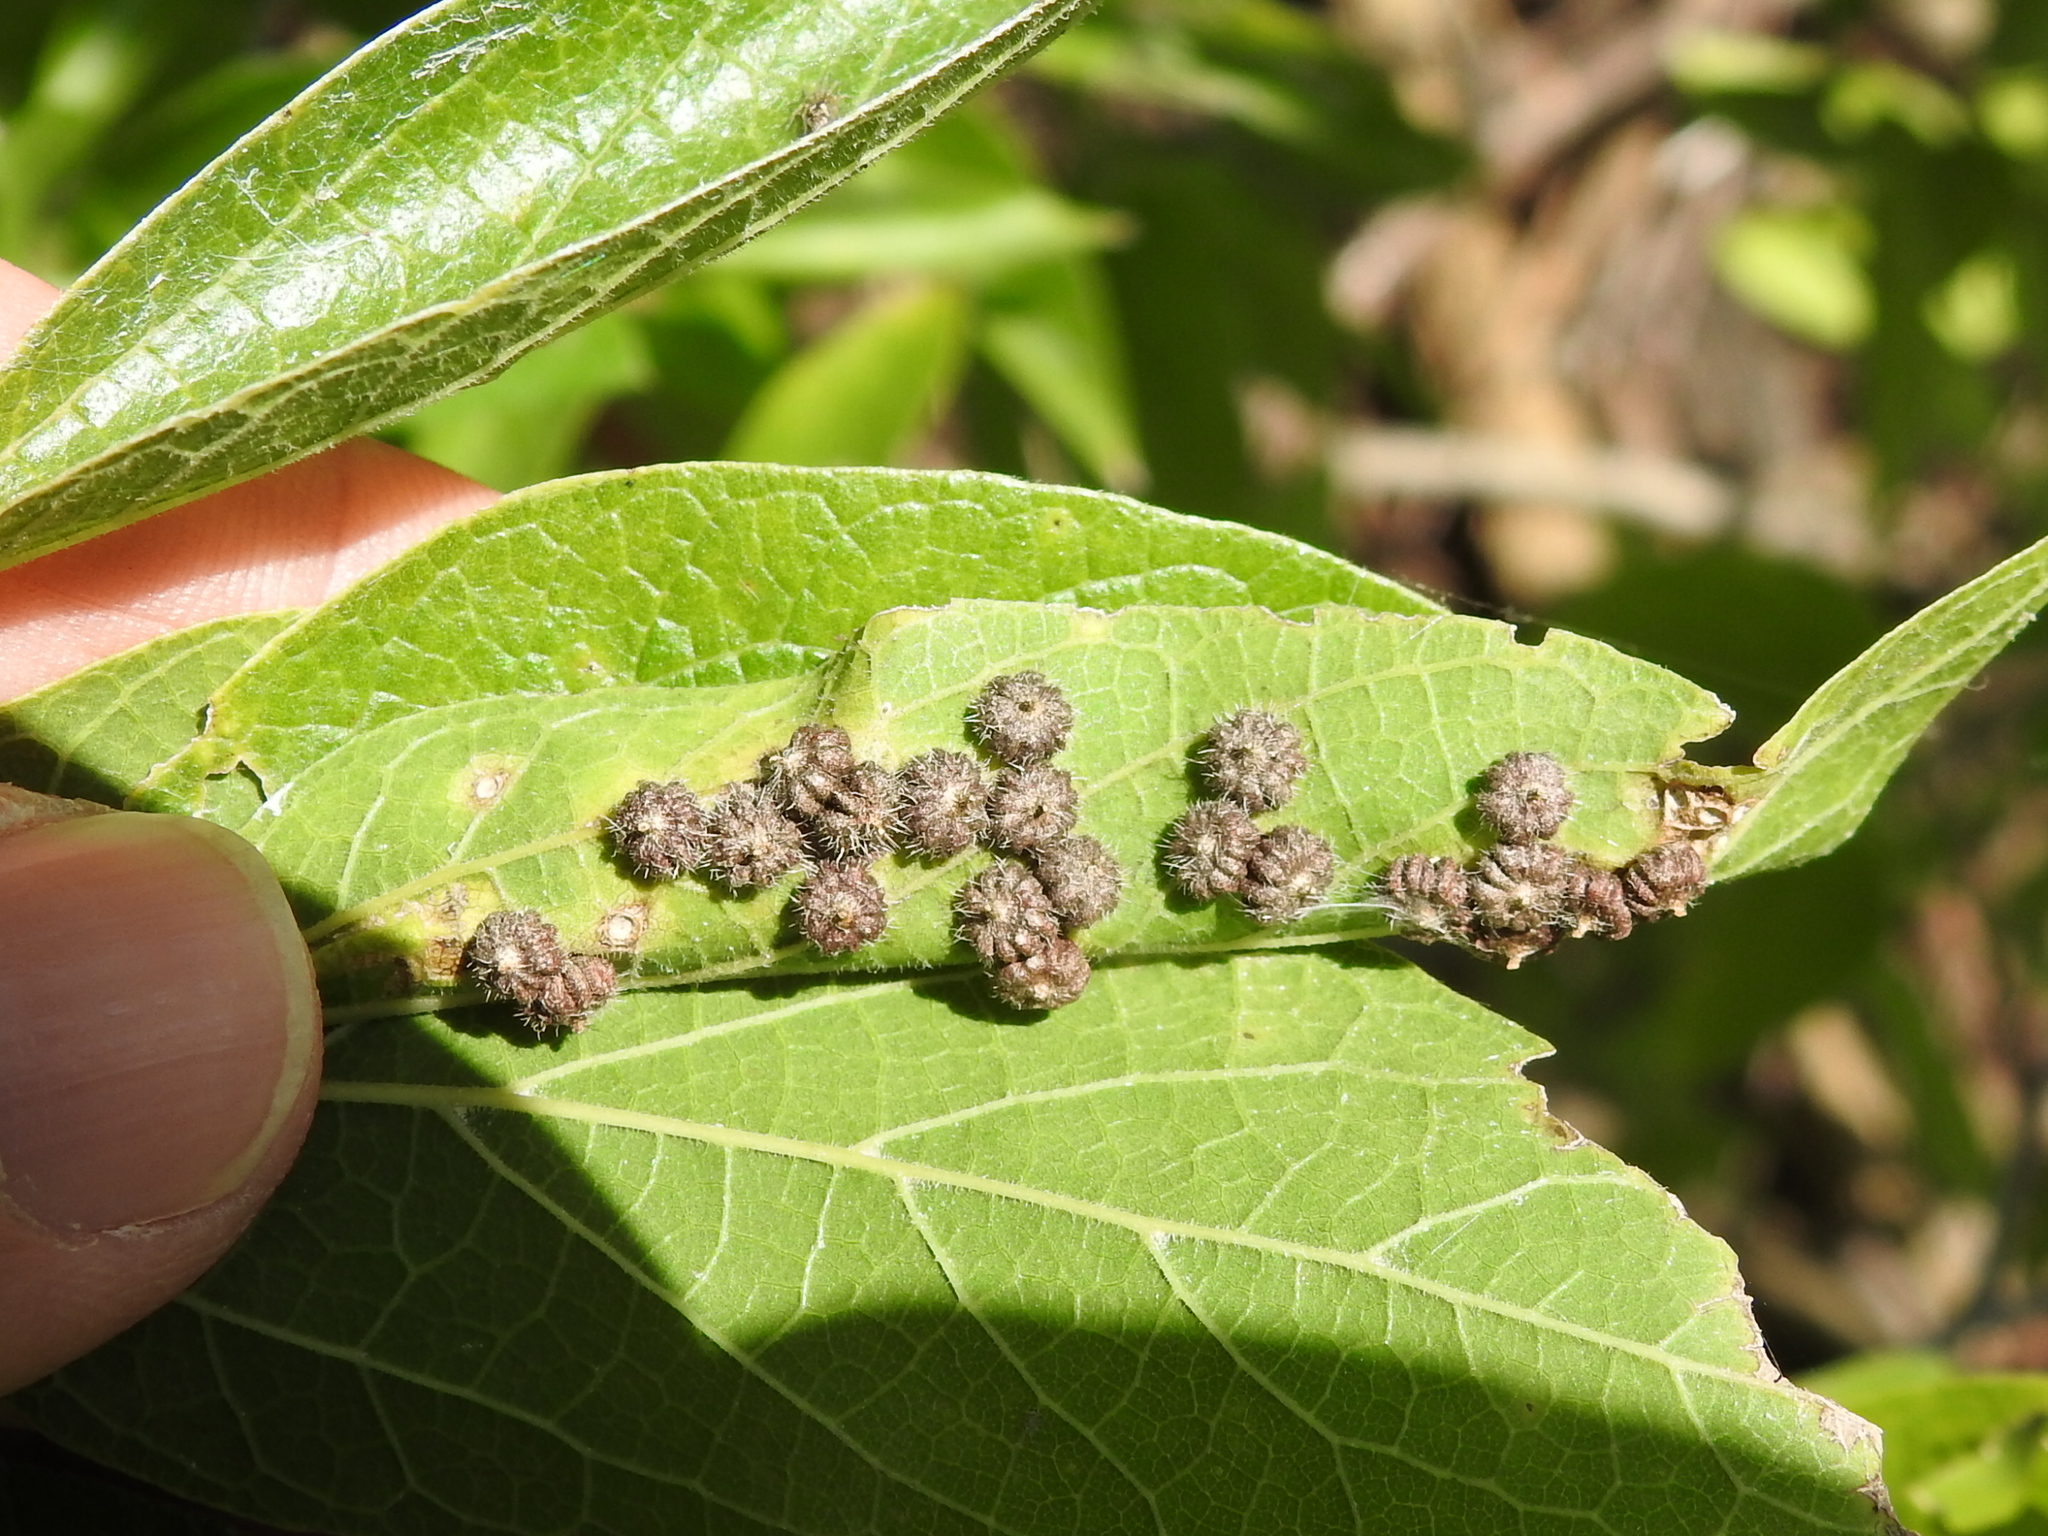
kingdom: Animalia
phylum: Arthropoda
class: Insecta
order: Diptera
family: Cecidomyiidae
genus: Celticecis
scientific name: Celticecis capsularis
